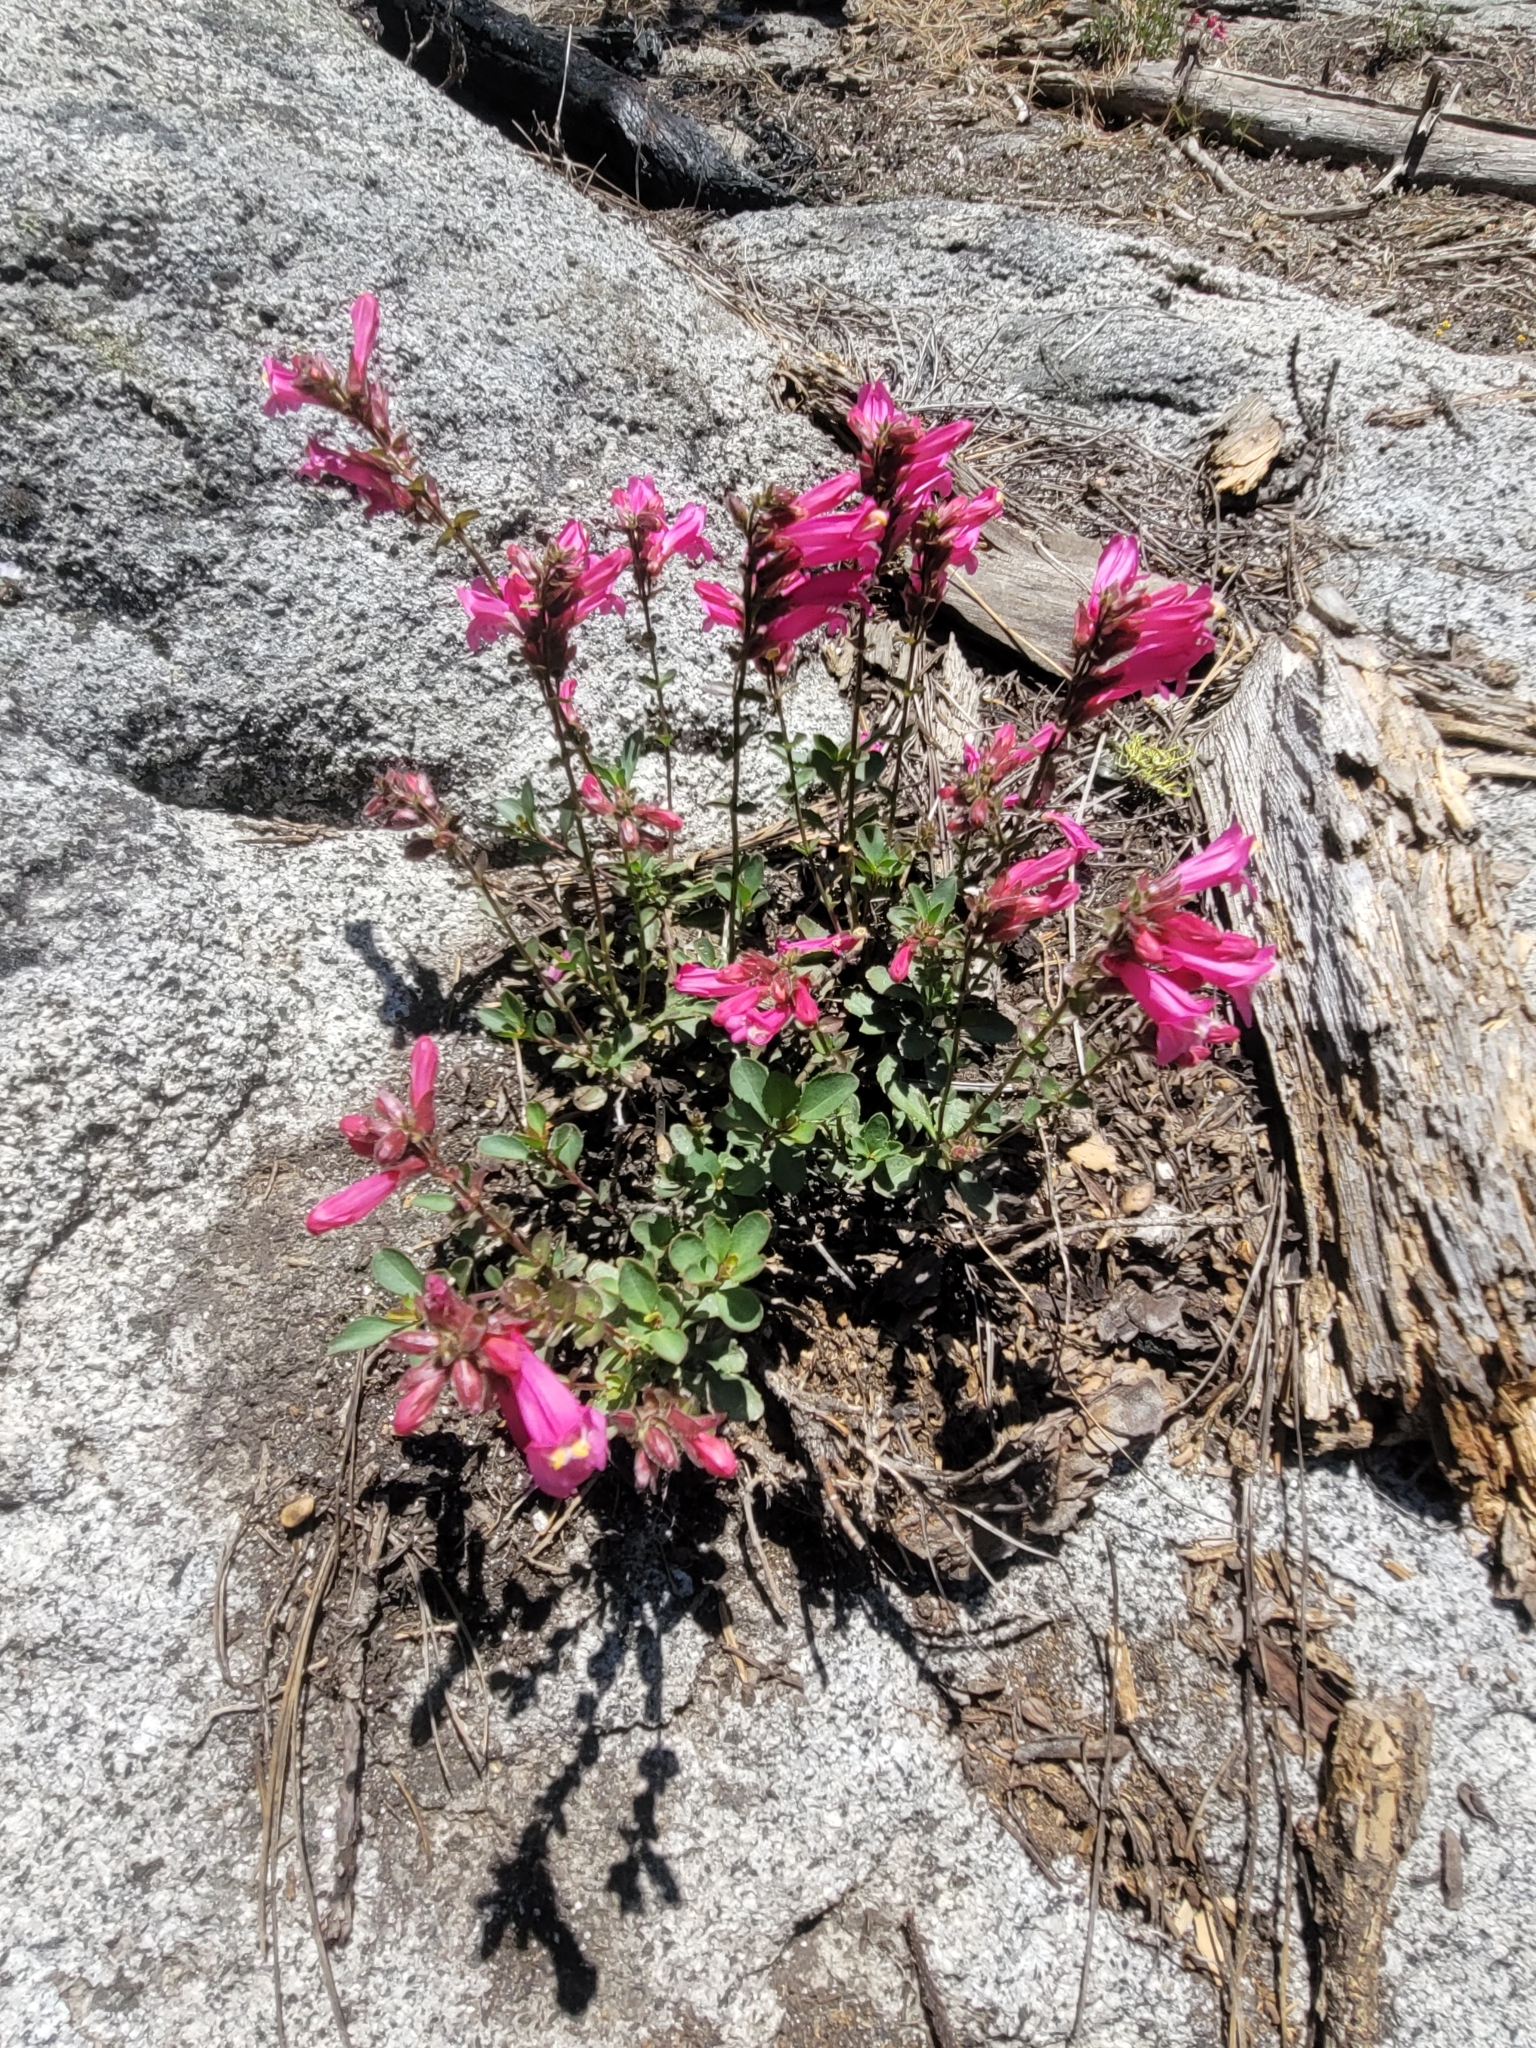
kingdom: Plantae
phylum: Tracheophyta
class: Magnoliopsida
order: Lamiales
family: Plantaginaceae
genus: Penstemon
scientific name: Penstemon newberryi
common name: Mountain-pride
